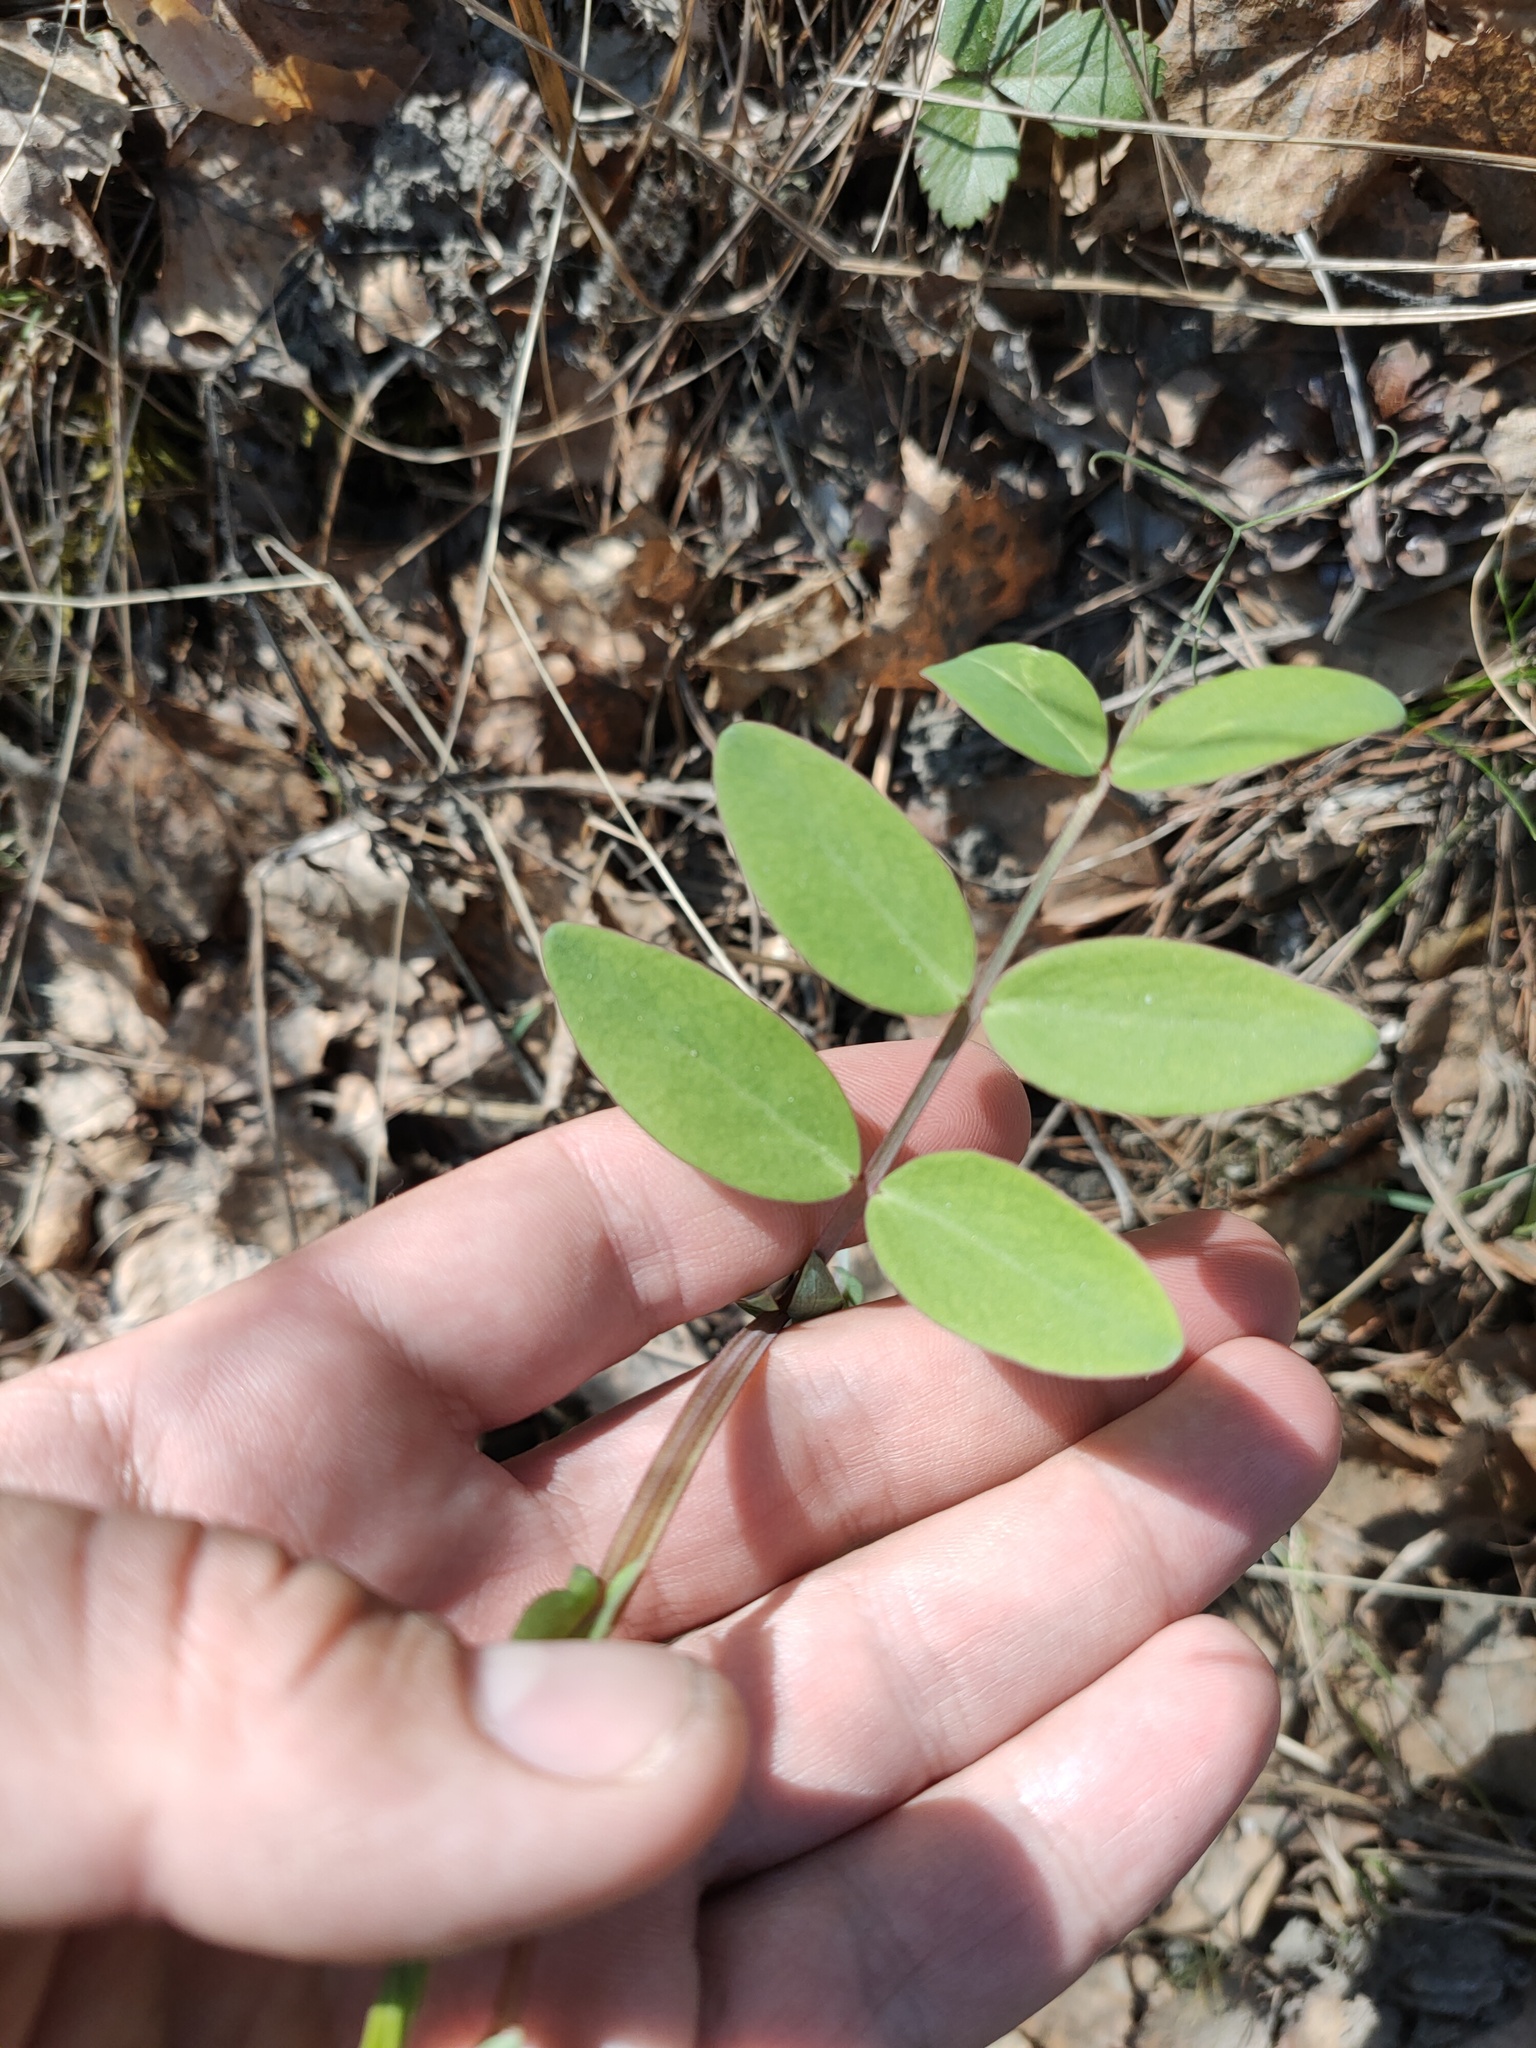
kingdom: Plantae
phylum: Tracheophyta
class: Magnoliopsida
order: Fabales
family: Fabaceae
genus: Lathyrus
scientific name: Lathyrus pisiformis
